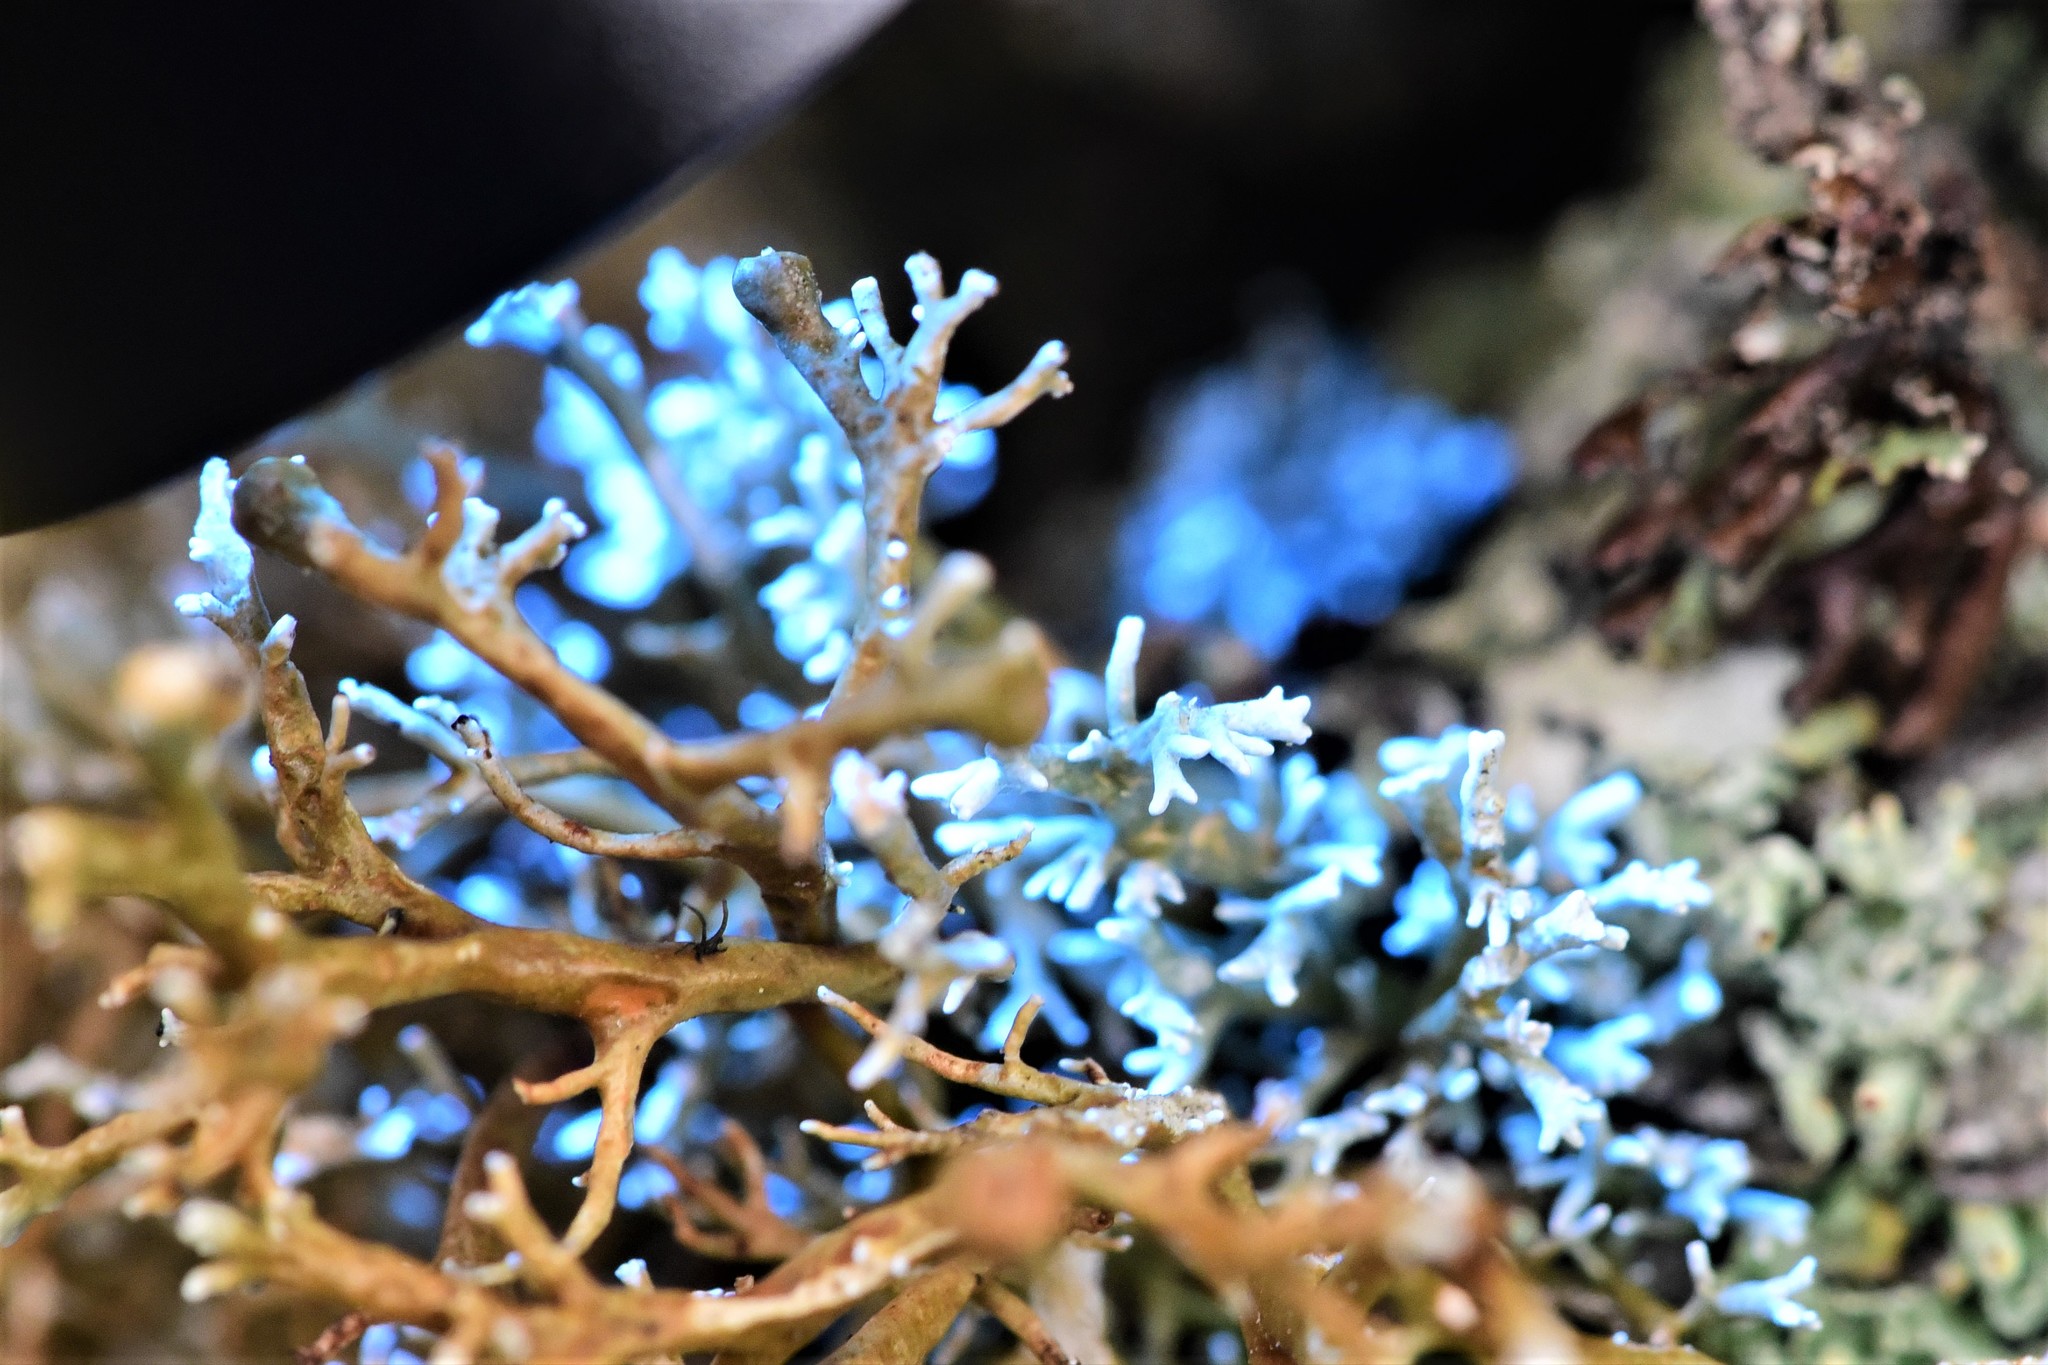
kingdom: Fungi
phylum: Ascomycota
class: Lecanoromycetes
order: Lecanorales
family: Sphaerophoraceae
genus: Sphaerophorus
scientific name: Sphaerophorus venerabilis
